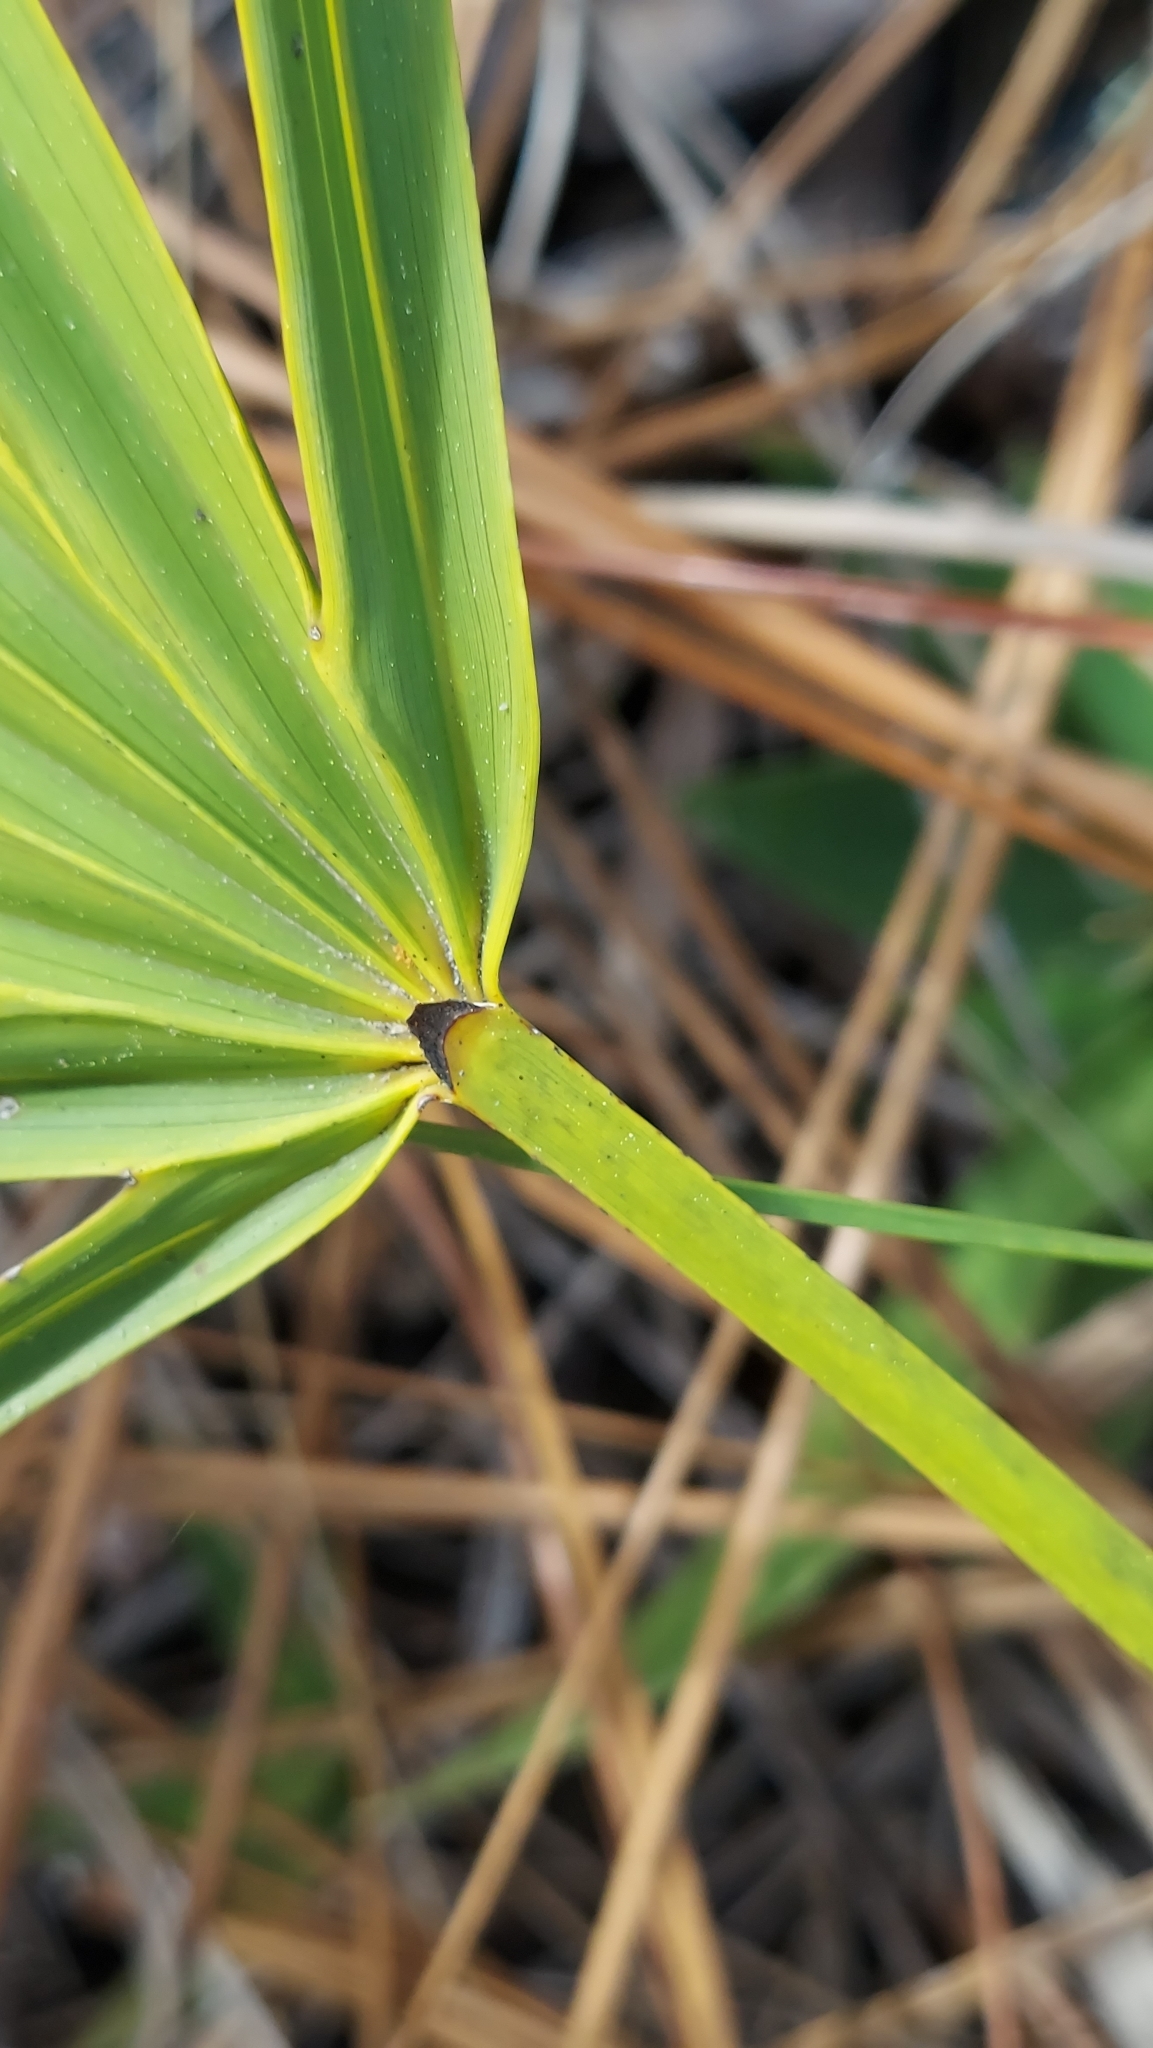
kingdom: Plantae
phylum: Tracheophyta
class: Liliopsida
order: Arecales
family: Arecaceae
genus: Serenoa
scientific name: Serenoa repens
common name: Saw-palmetto
